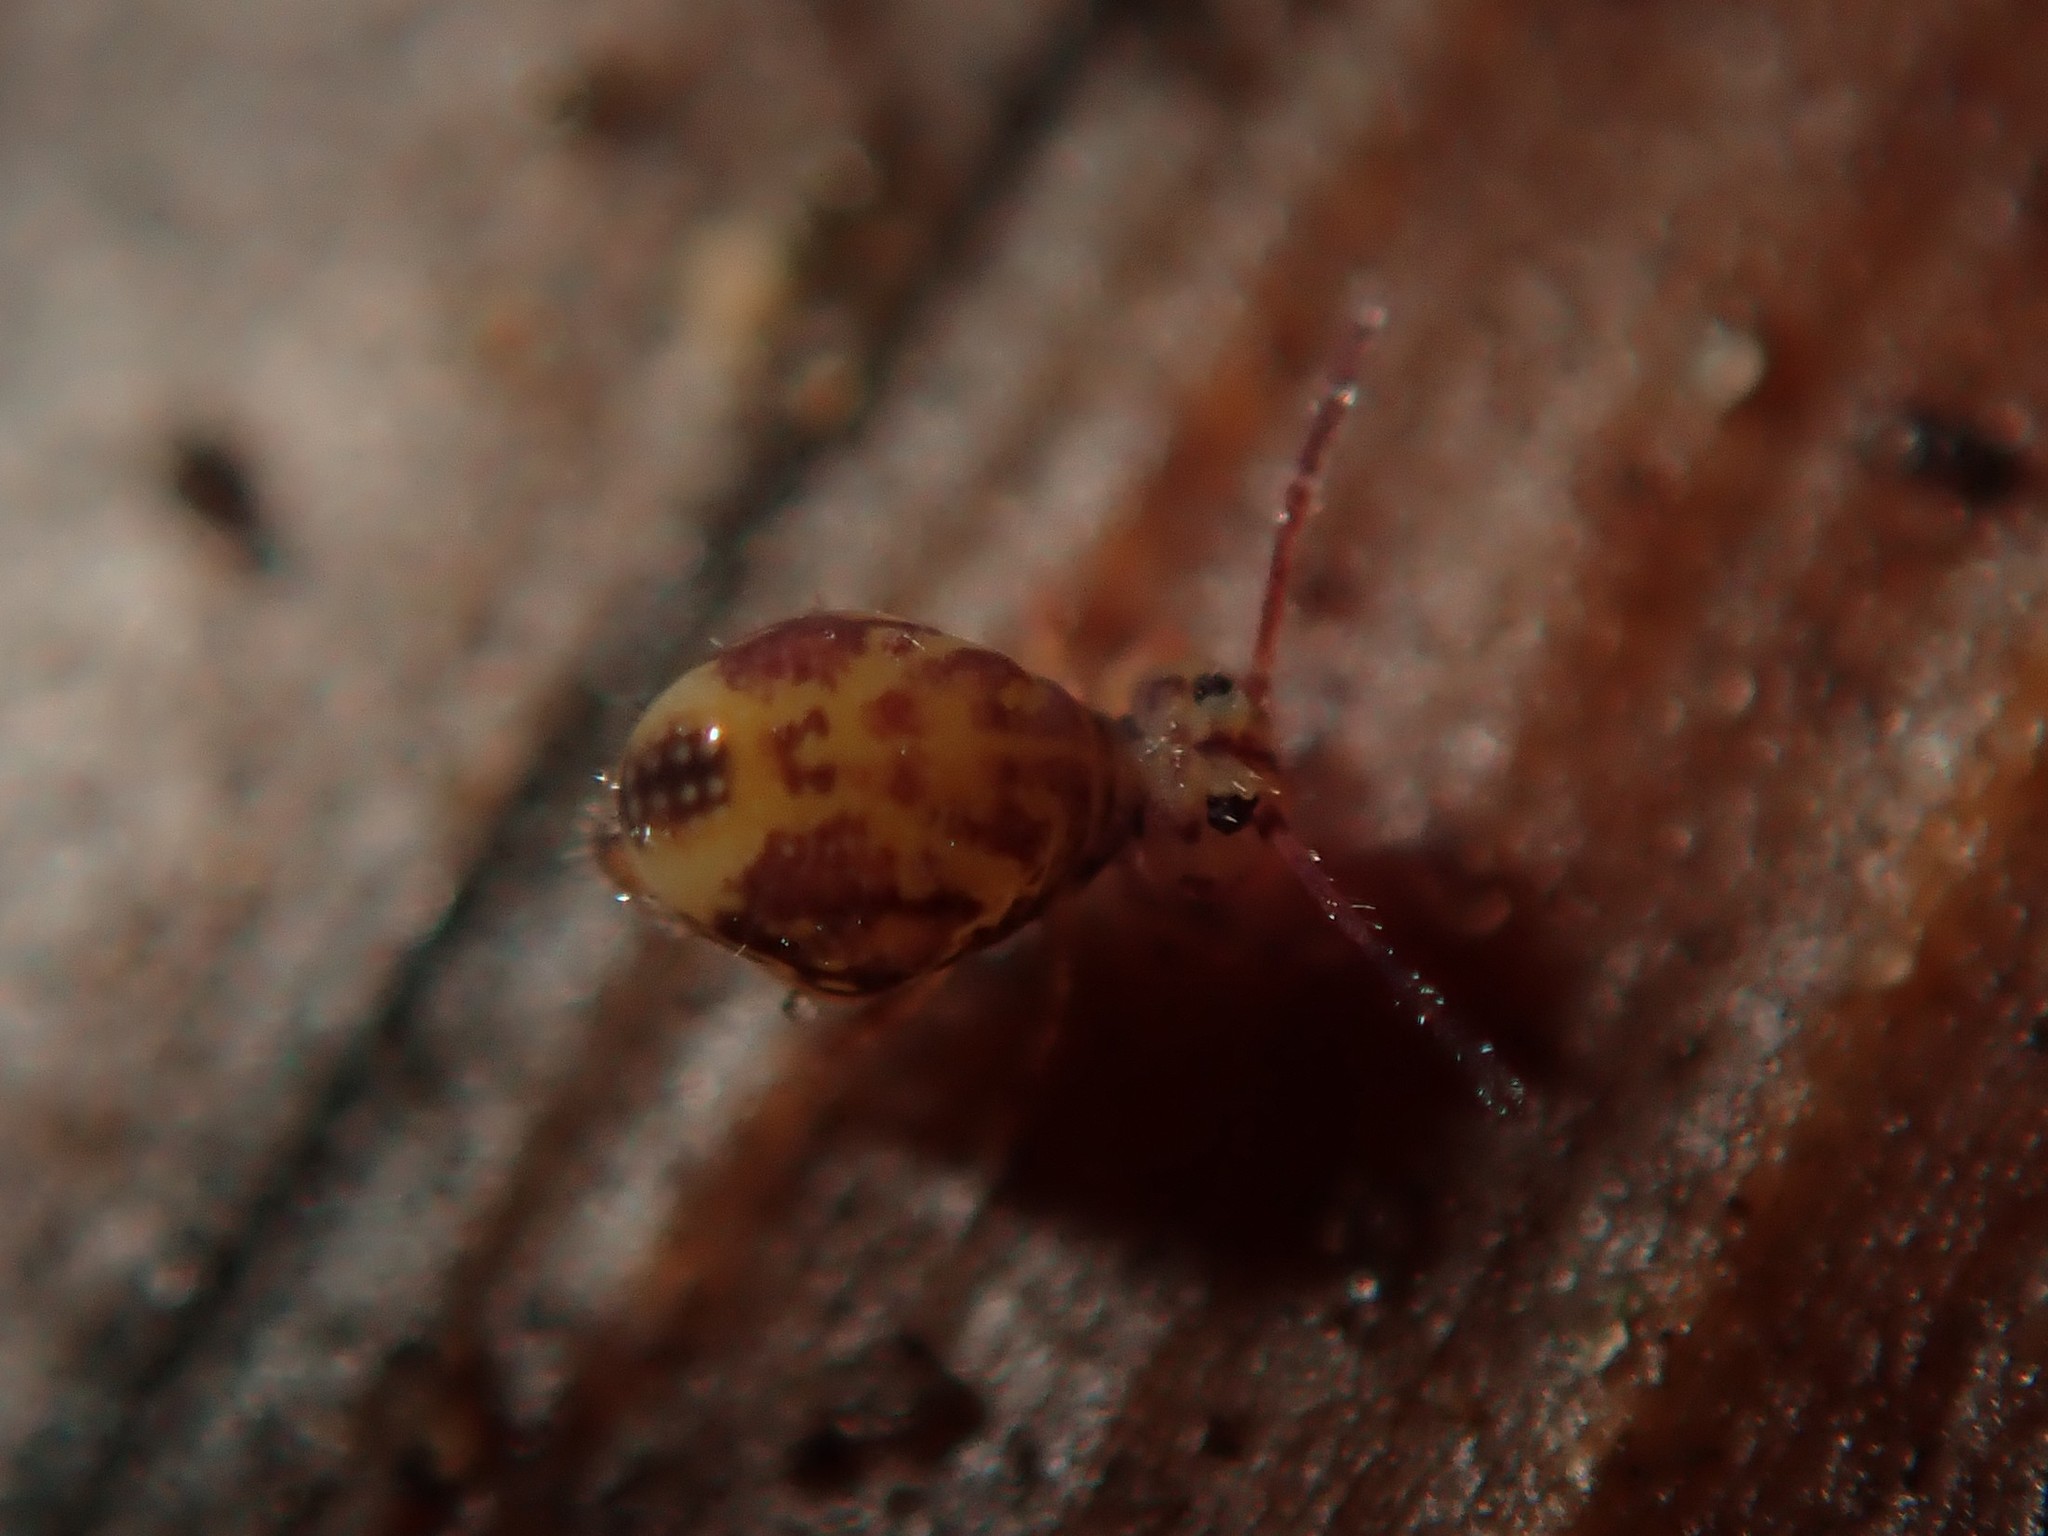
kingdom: Animalia
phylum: Arthropoda
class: Collembola
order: Symphypleona
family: Dicyrtomidae
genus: Dicyrtomina
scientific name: Dicyrtomina ornata
